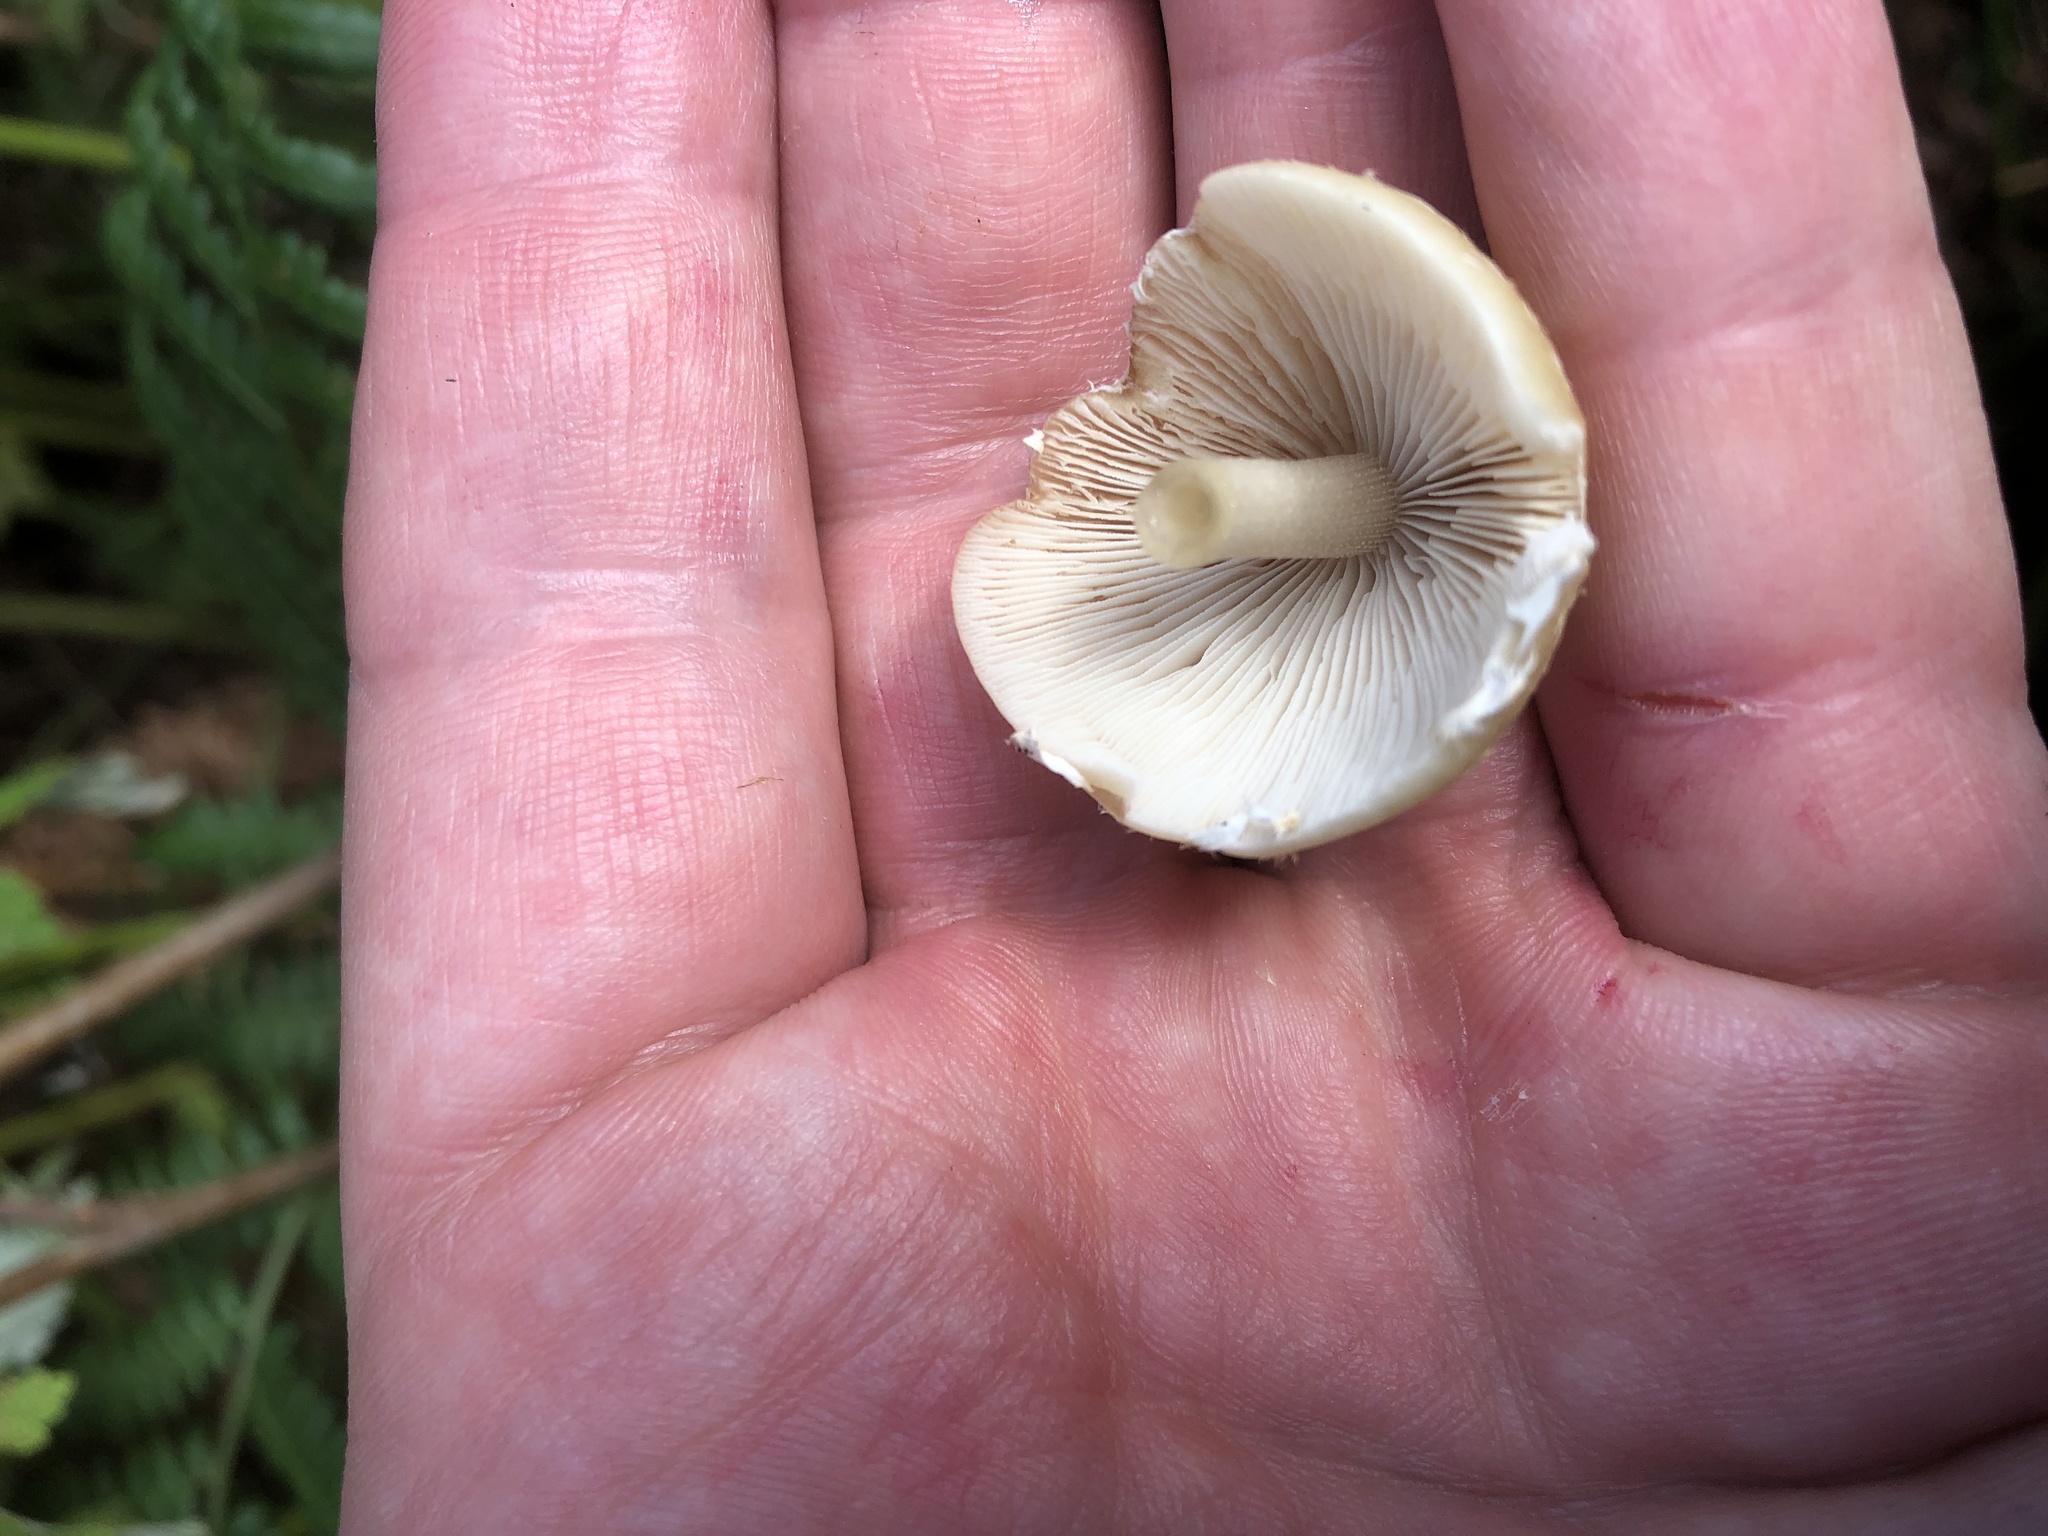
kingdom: Fungi
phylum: Basidiomycota
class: Agaricomycetes
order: Agaricales
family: Psathyrellaceae
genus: Candolleomyces
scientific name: Candolleomyces candolleanus
